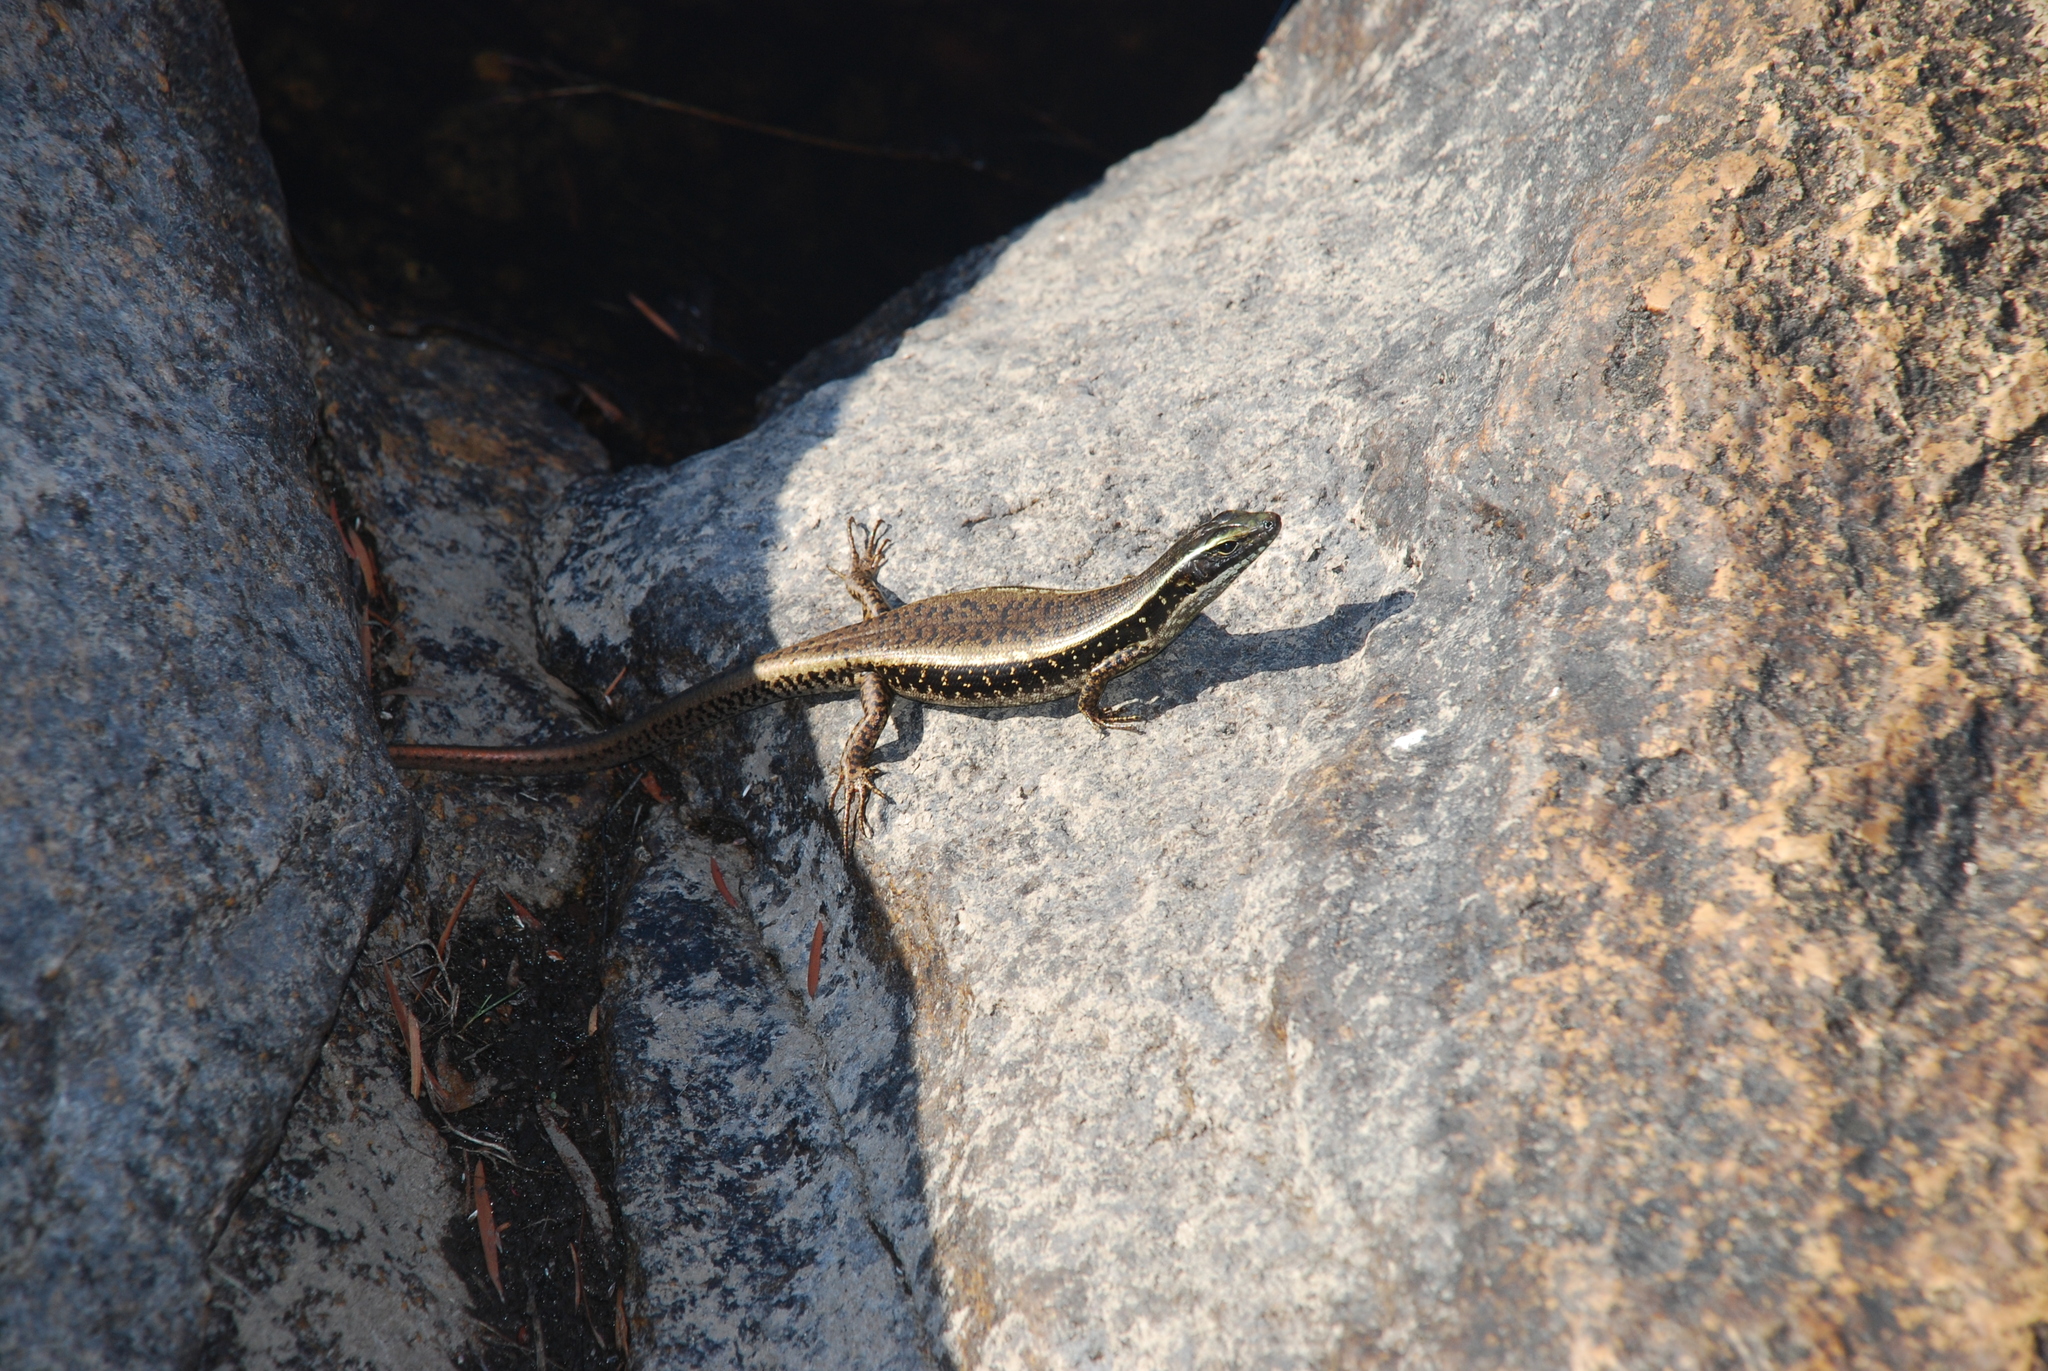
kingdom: Animalia
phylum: Chordata
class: Squamata
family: Scincidae
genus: Eulamprus
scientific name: Eulamprus quoyii
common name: Eastern water skink
